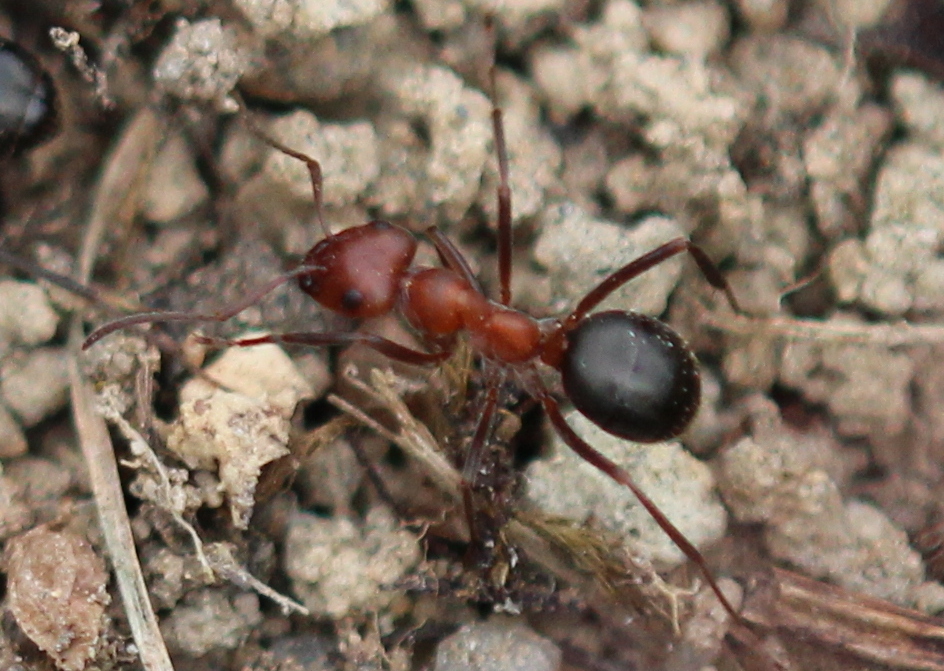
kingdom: Animalia
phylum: Arthropoda
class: Insecta
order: Hymenoptera
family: Formicidae
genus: Formica
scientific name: Formica exsectoides
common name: Allegheny mound ant
